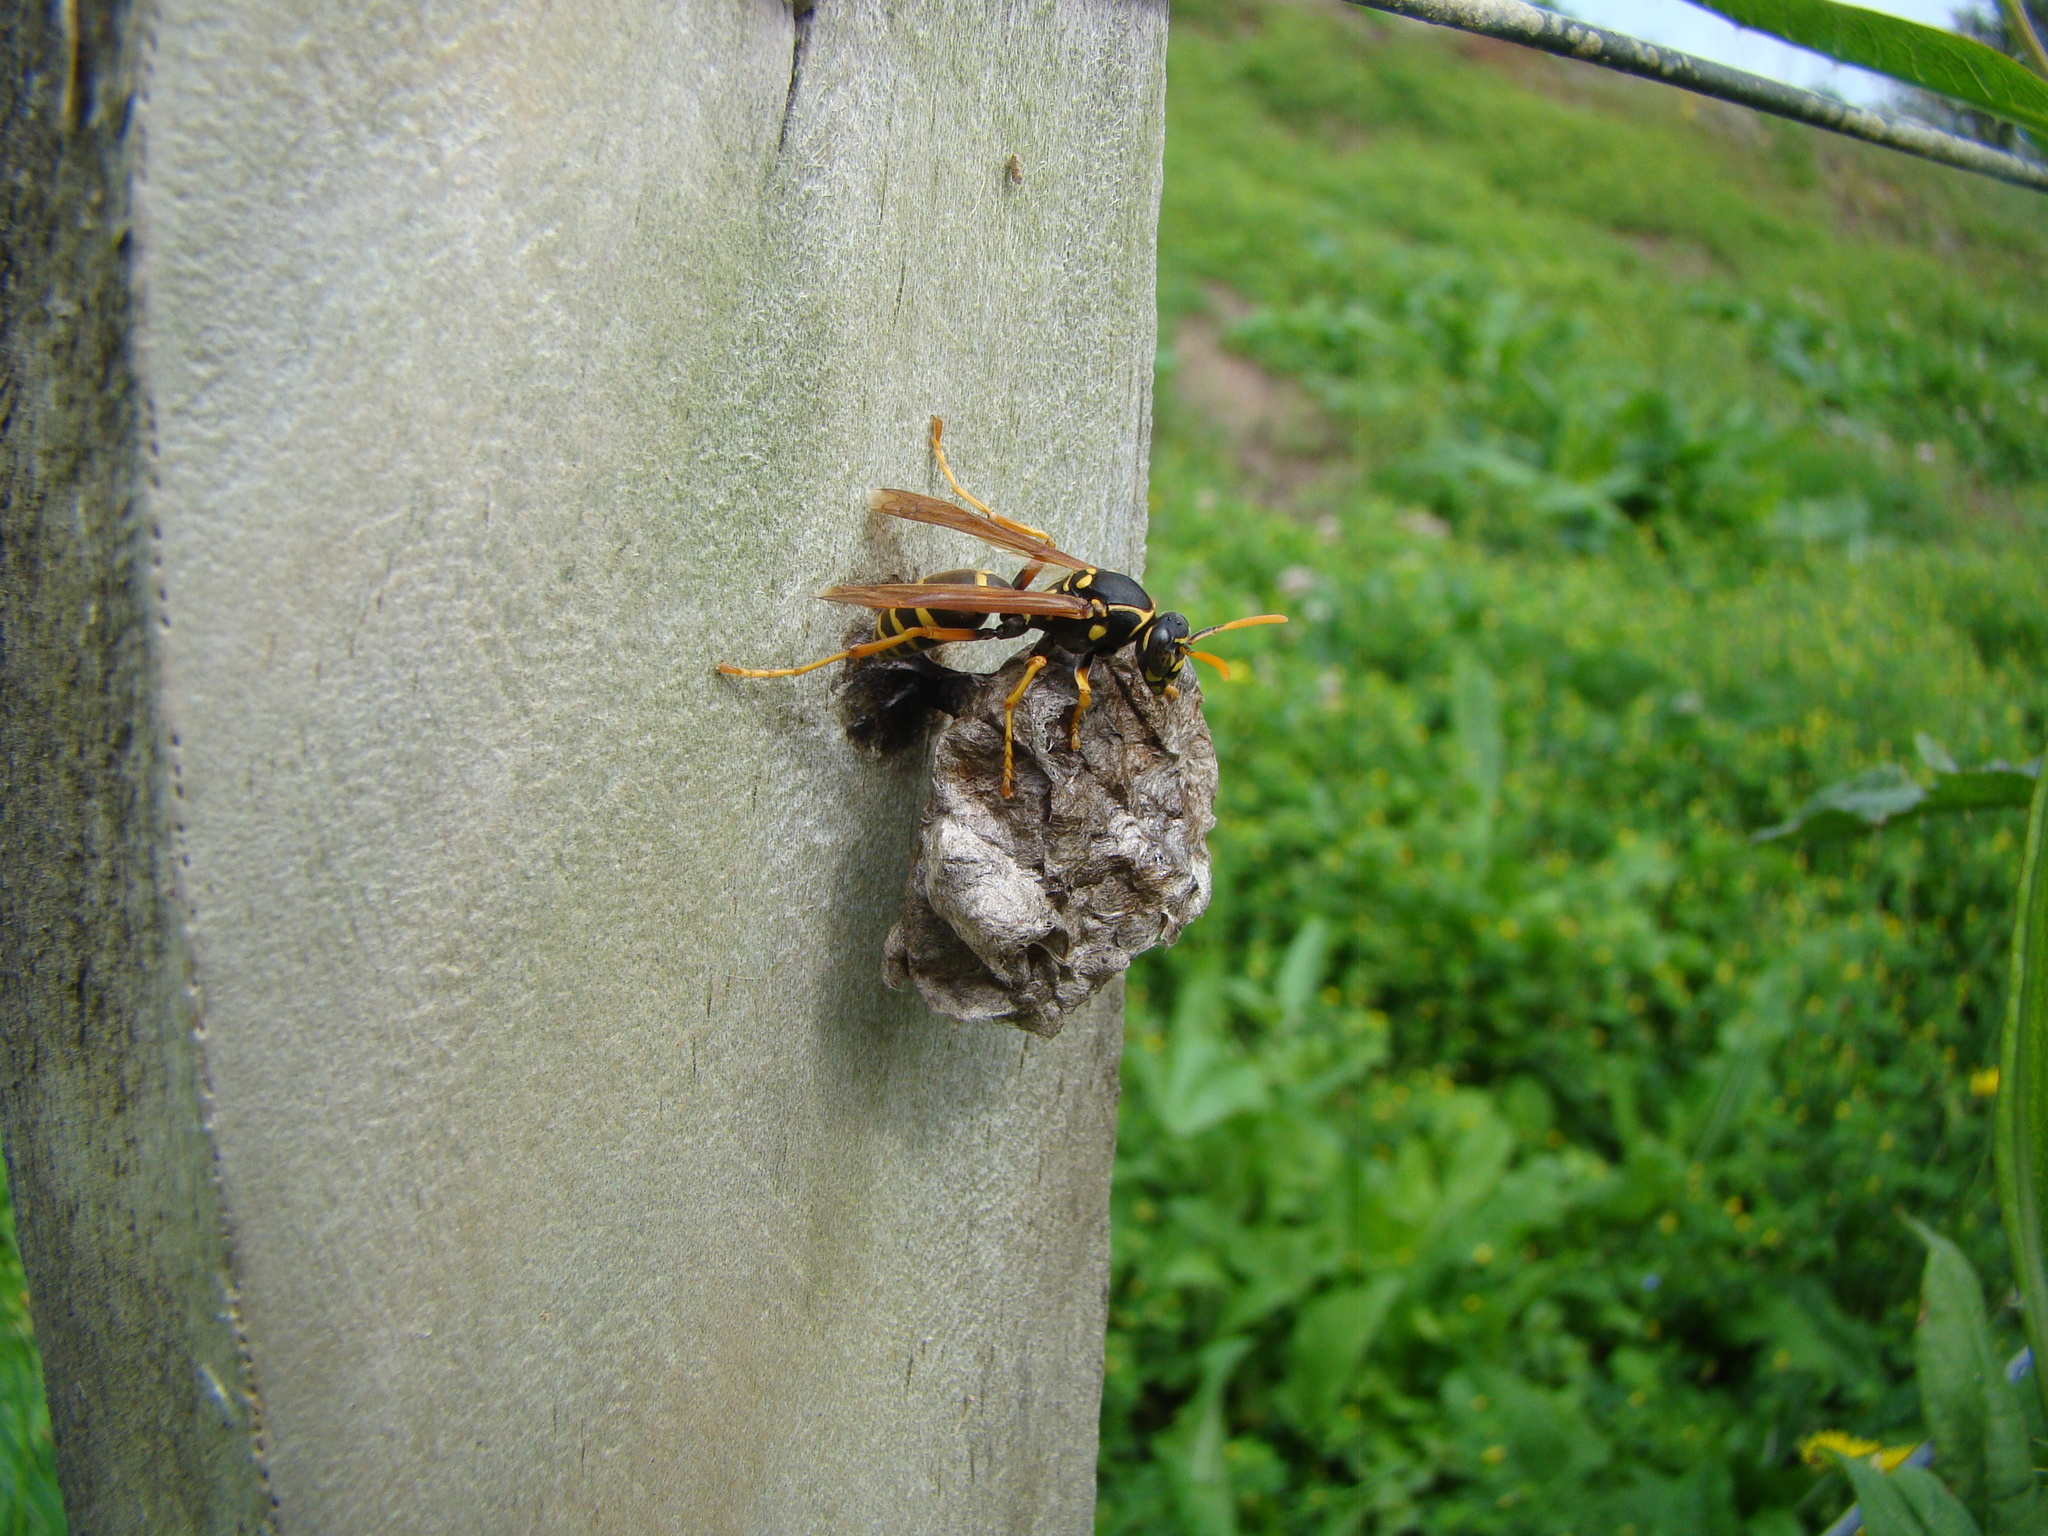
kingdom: Animalia
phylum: Arthropoda
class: Insecta
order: Hymenoptera
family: Eumenidae
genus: Polistes
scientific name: Polistes chinensis
